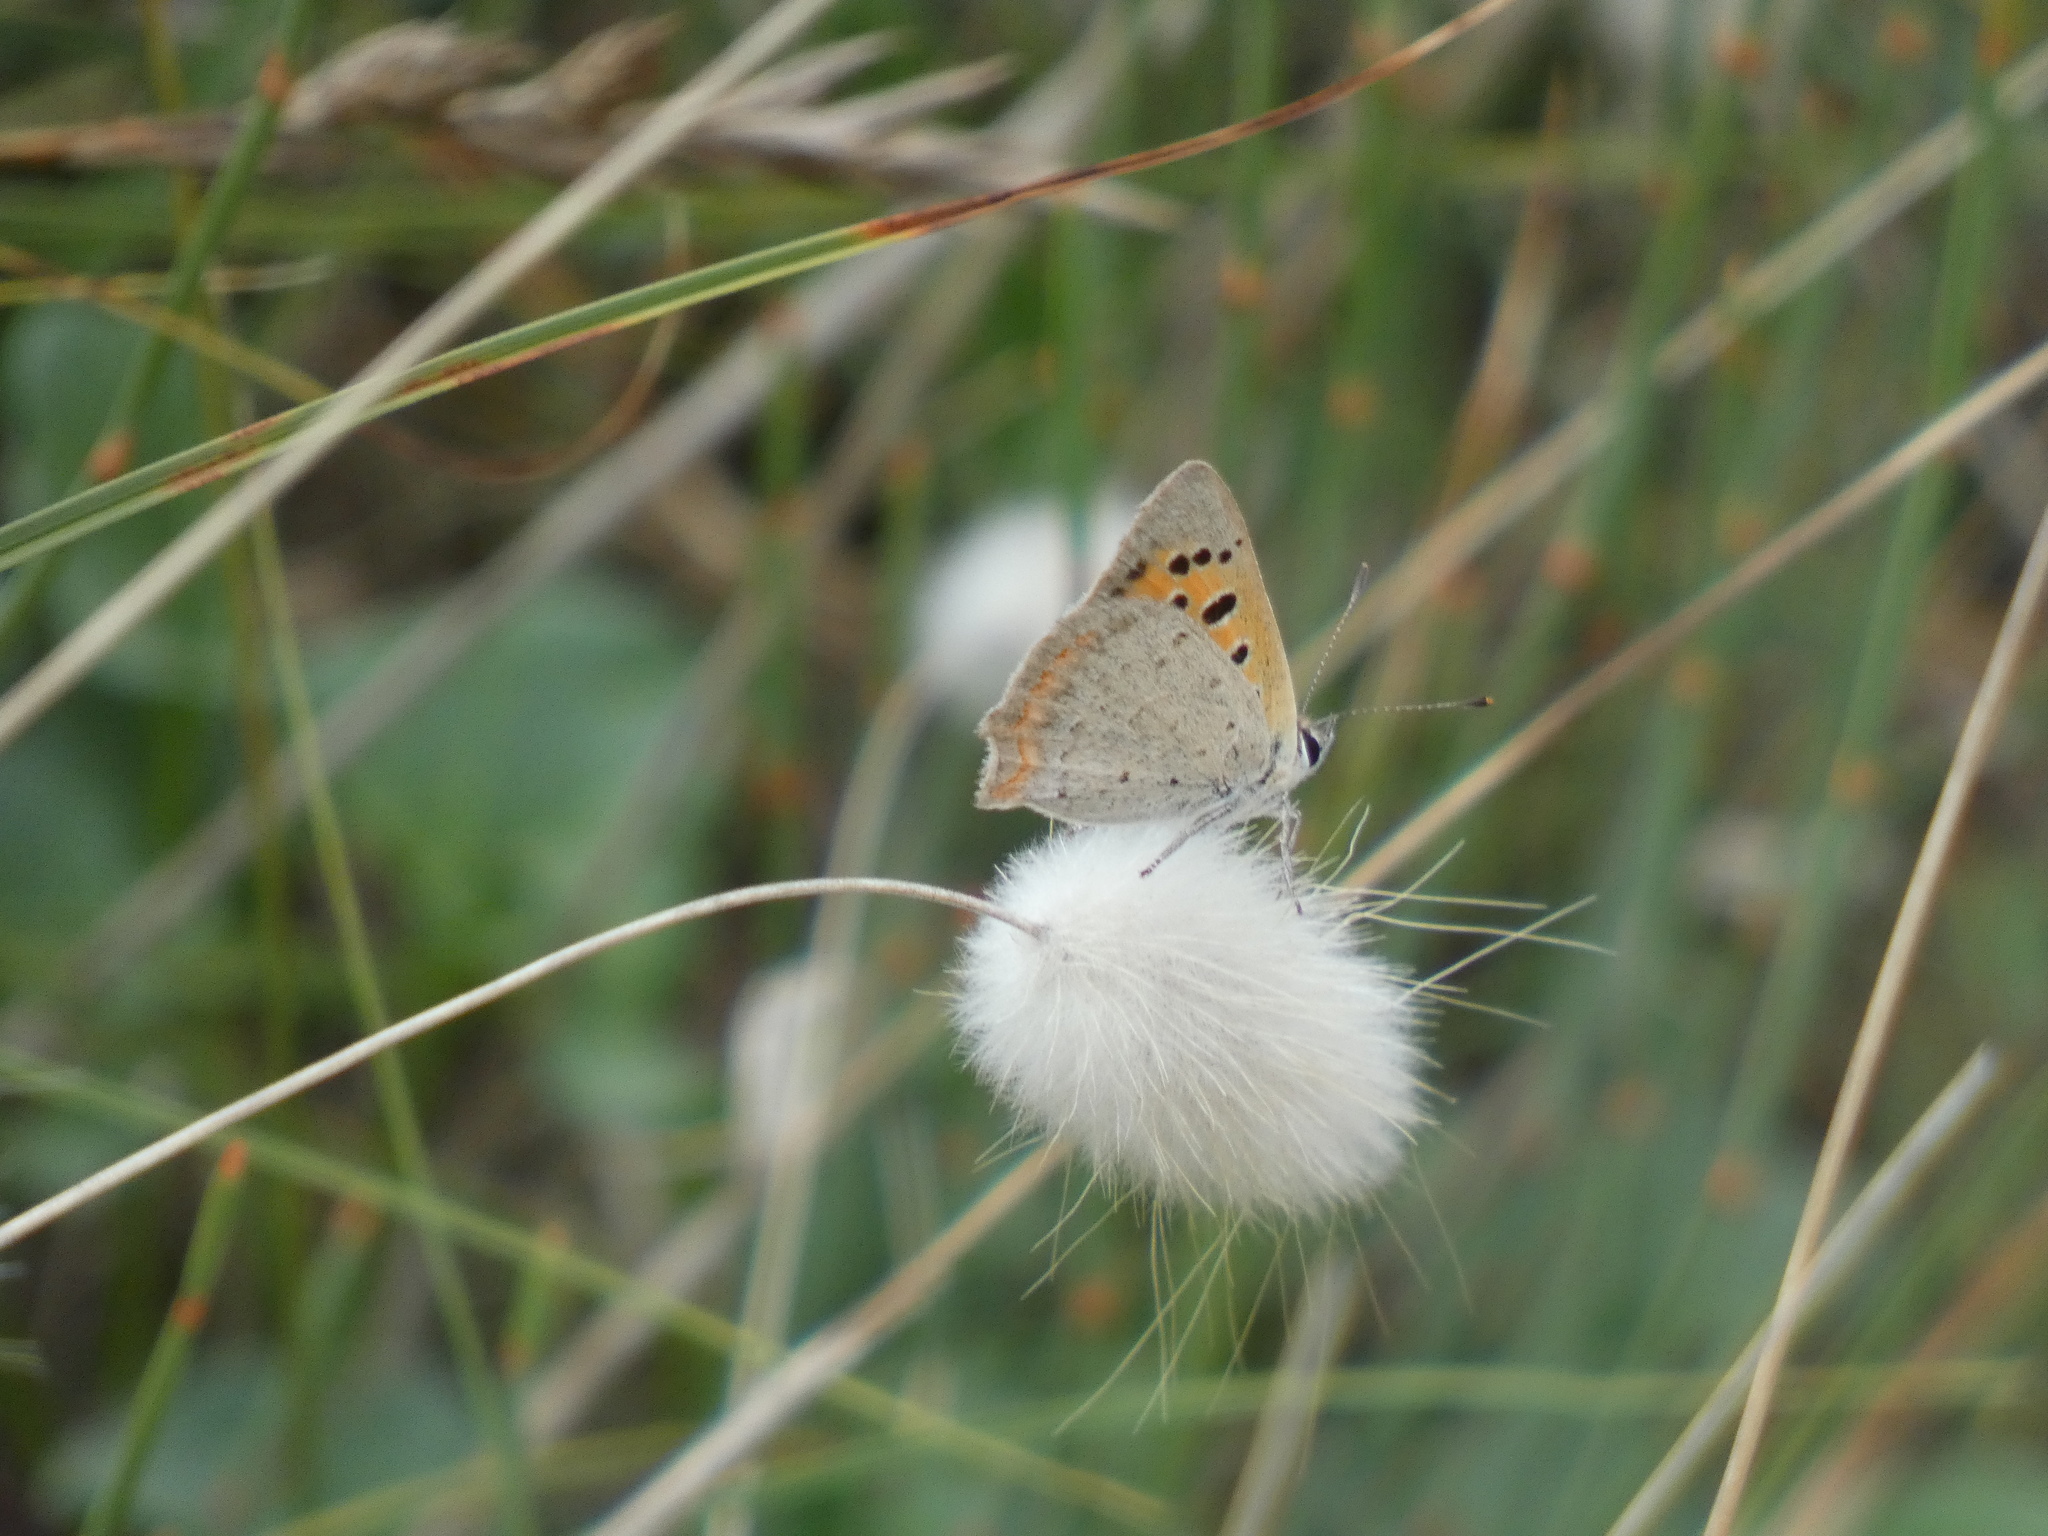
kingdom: Animalia
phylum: Arthropoda
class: Insecta
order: Lepidoptera
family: Lycaenidae
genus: Lycaena
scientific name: Lycaena phlaeas
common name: Small copper
